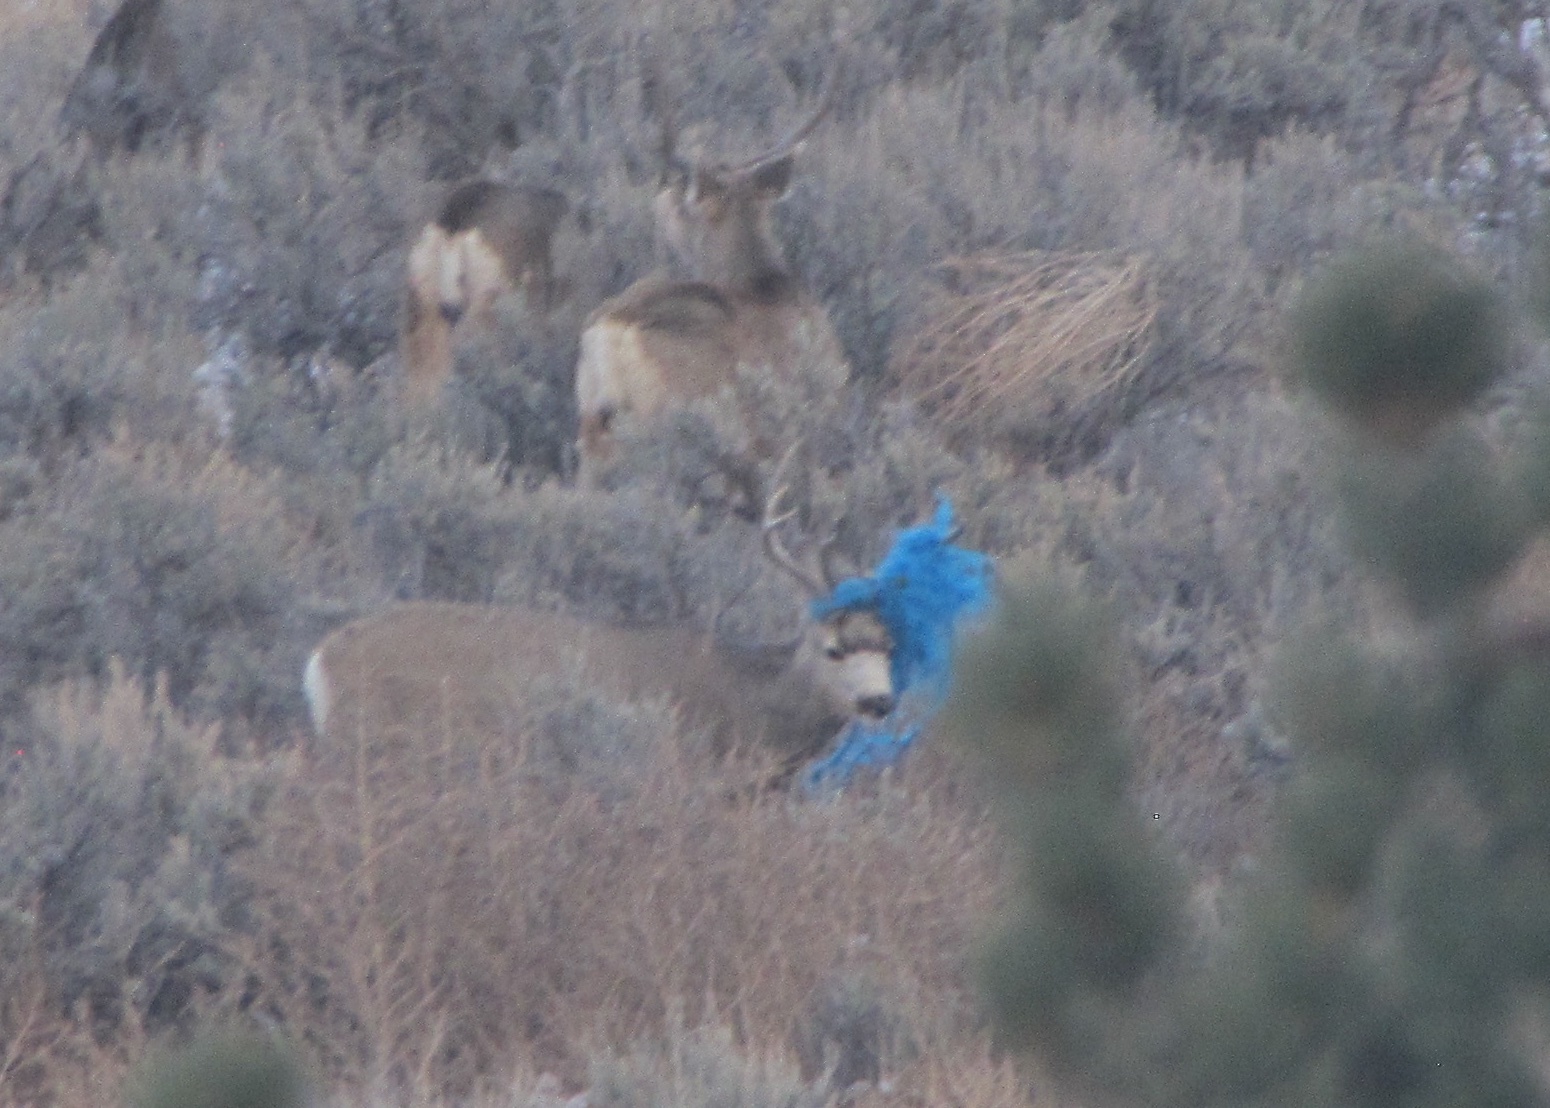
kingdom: Animalia
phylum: Chordata
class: Mammalia
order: Artiodactyla
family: Cervidae
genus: Odocoileus
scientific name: Odocoileus hemionus
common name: Mule deer
